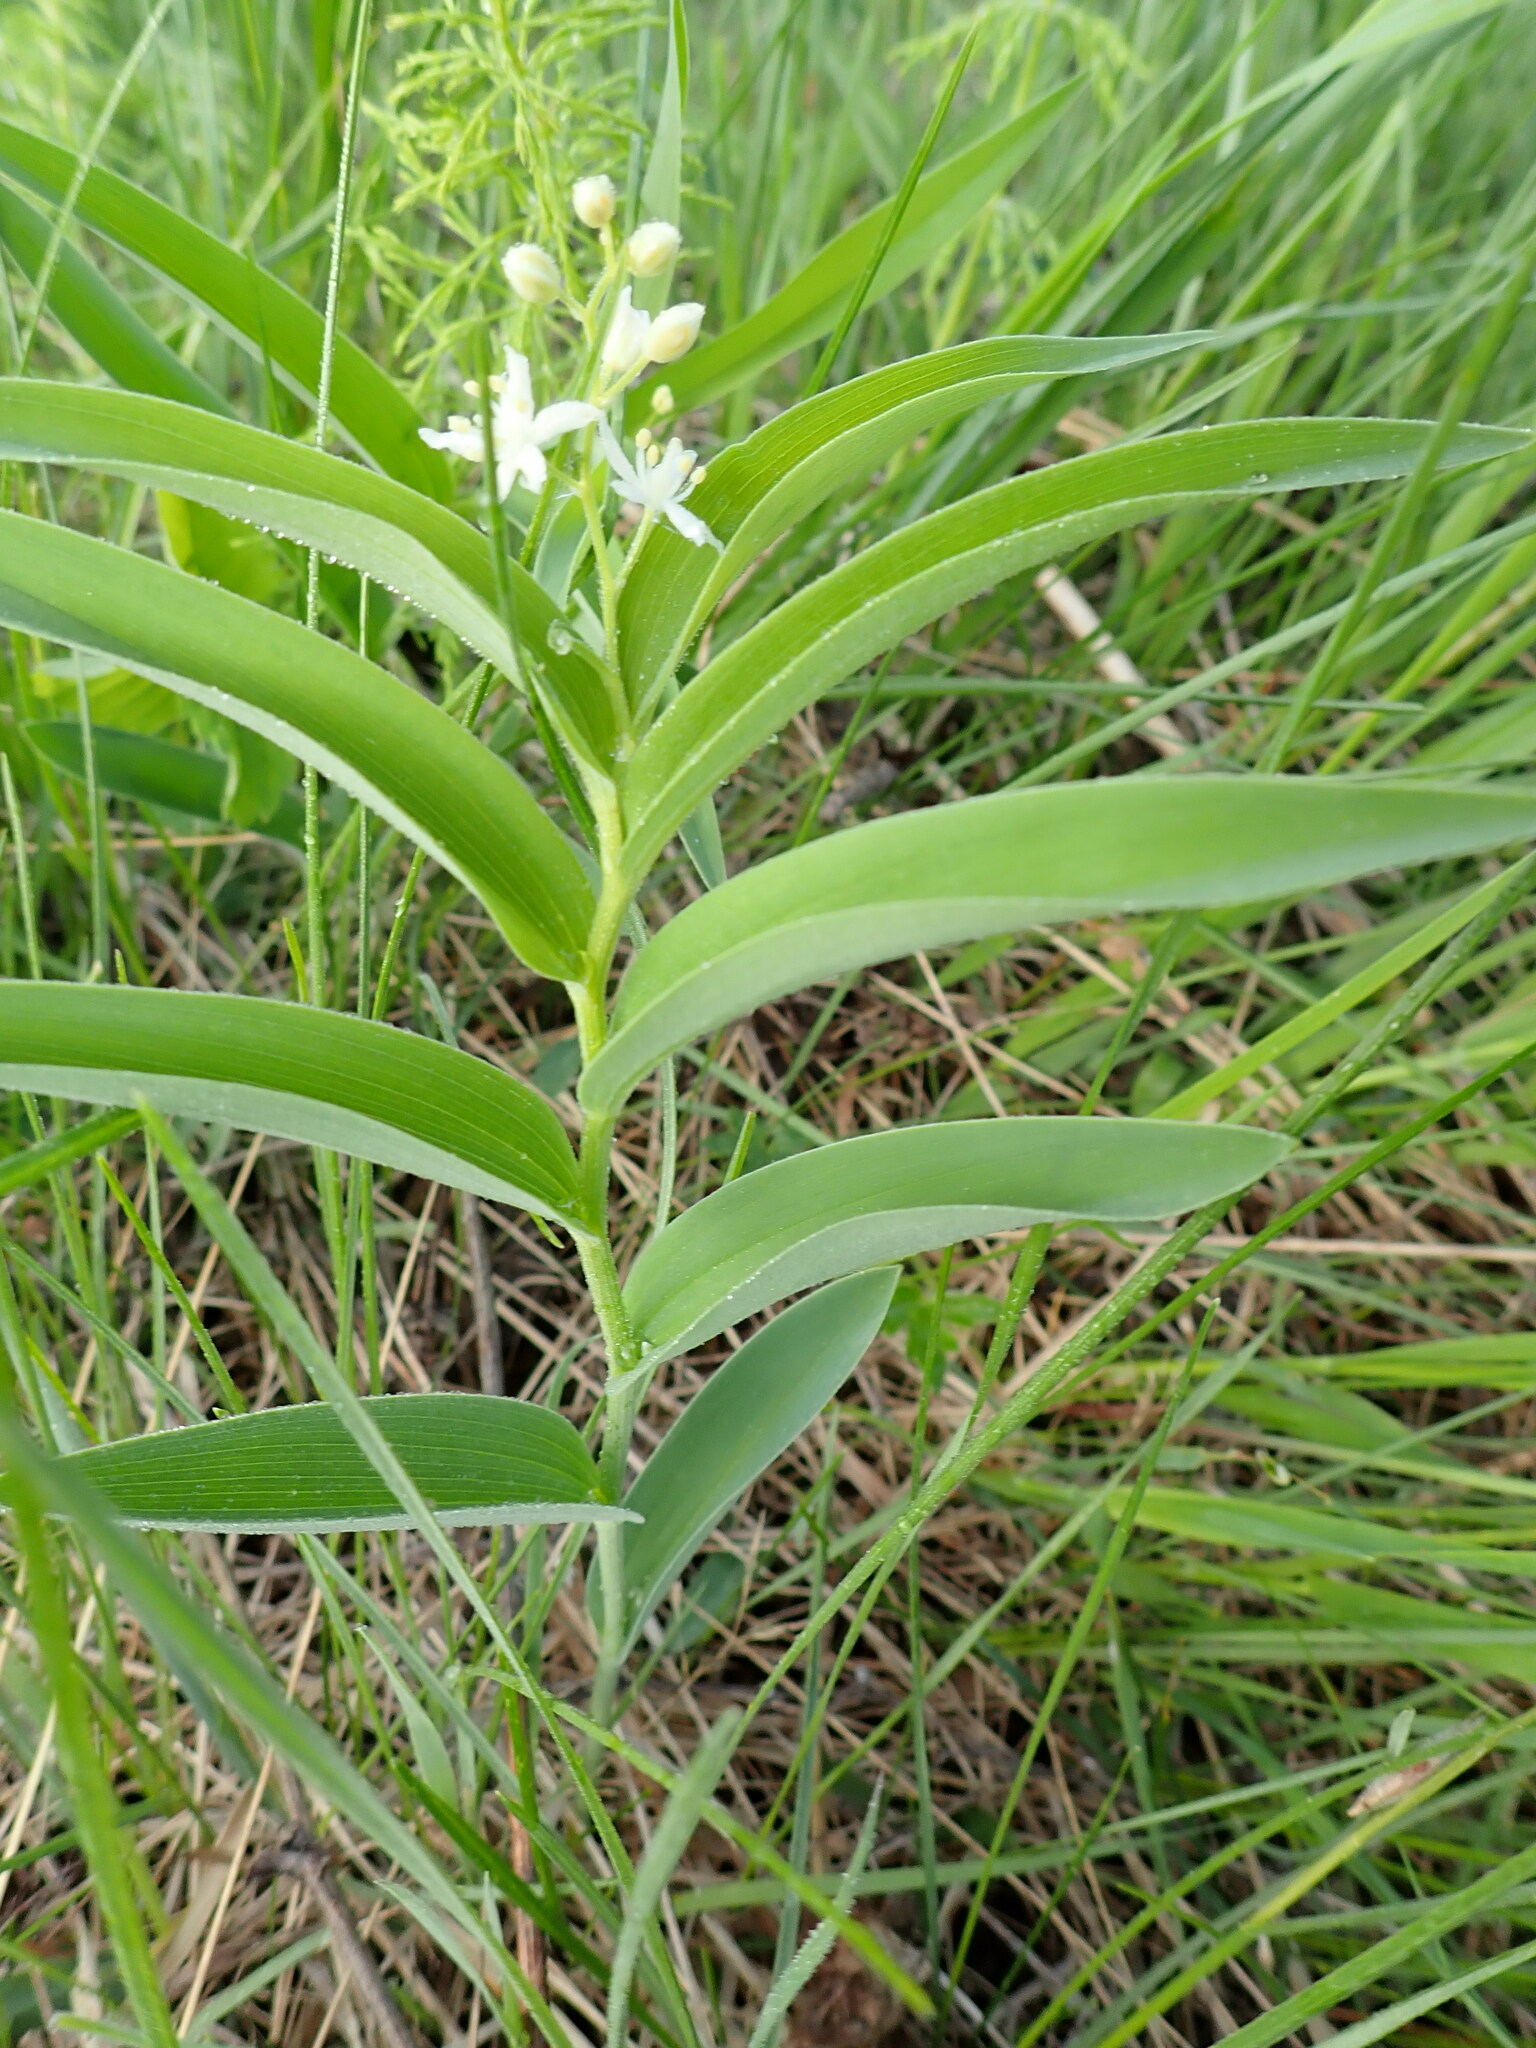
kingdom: Plantae
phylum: Tracheophyta
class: Liliopsida
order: Asparagales
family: Asparagaceae
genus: Maianthemum
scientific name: Maianthemum stellatum
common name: Little false solomon's seal
